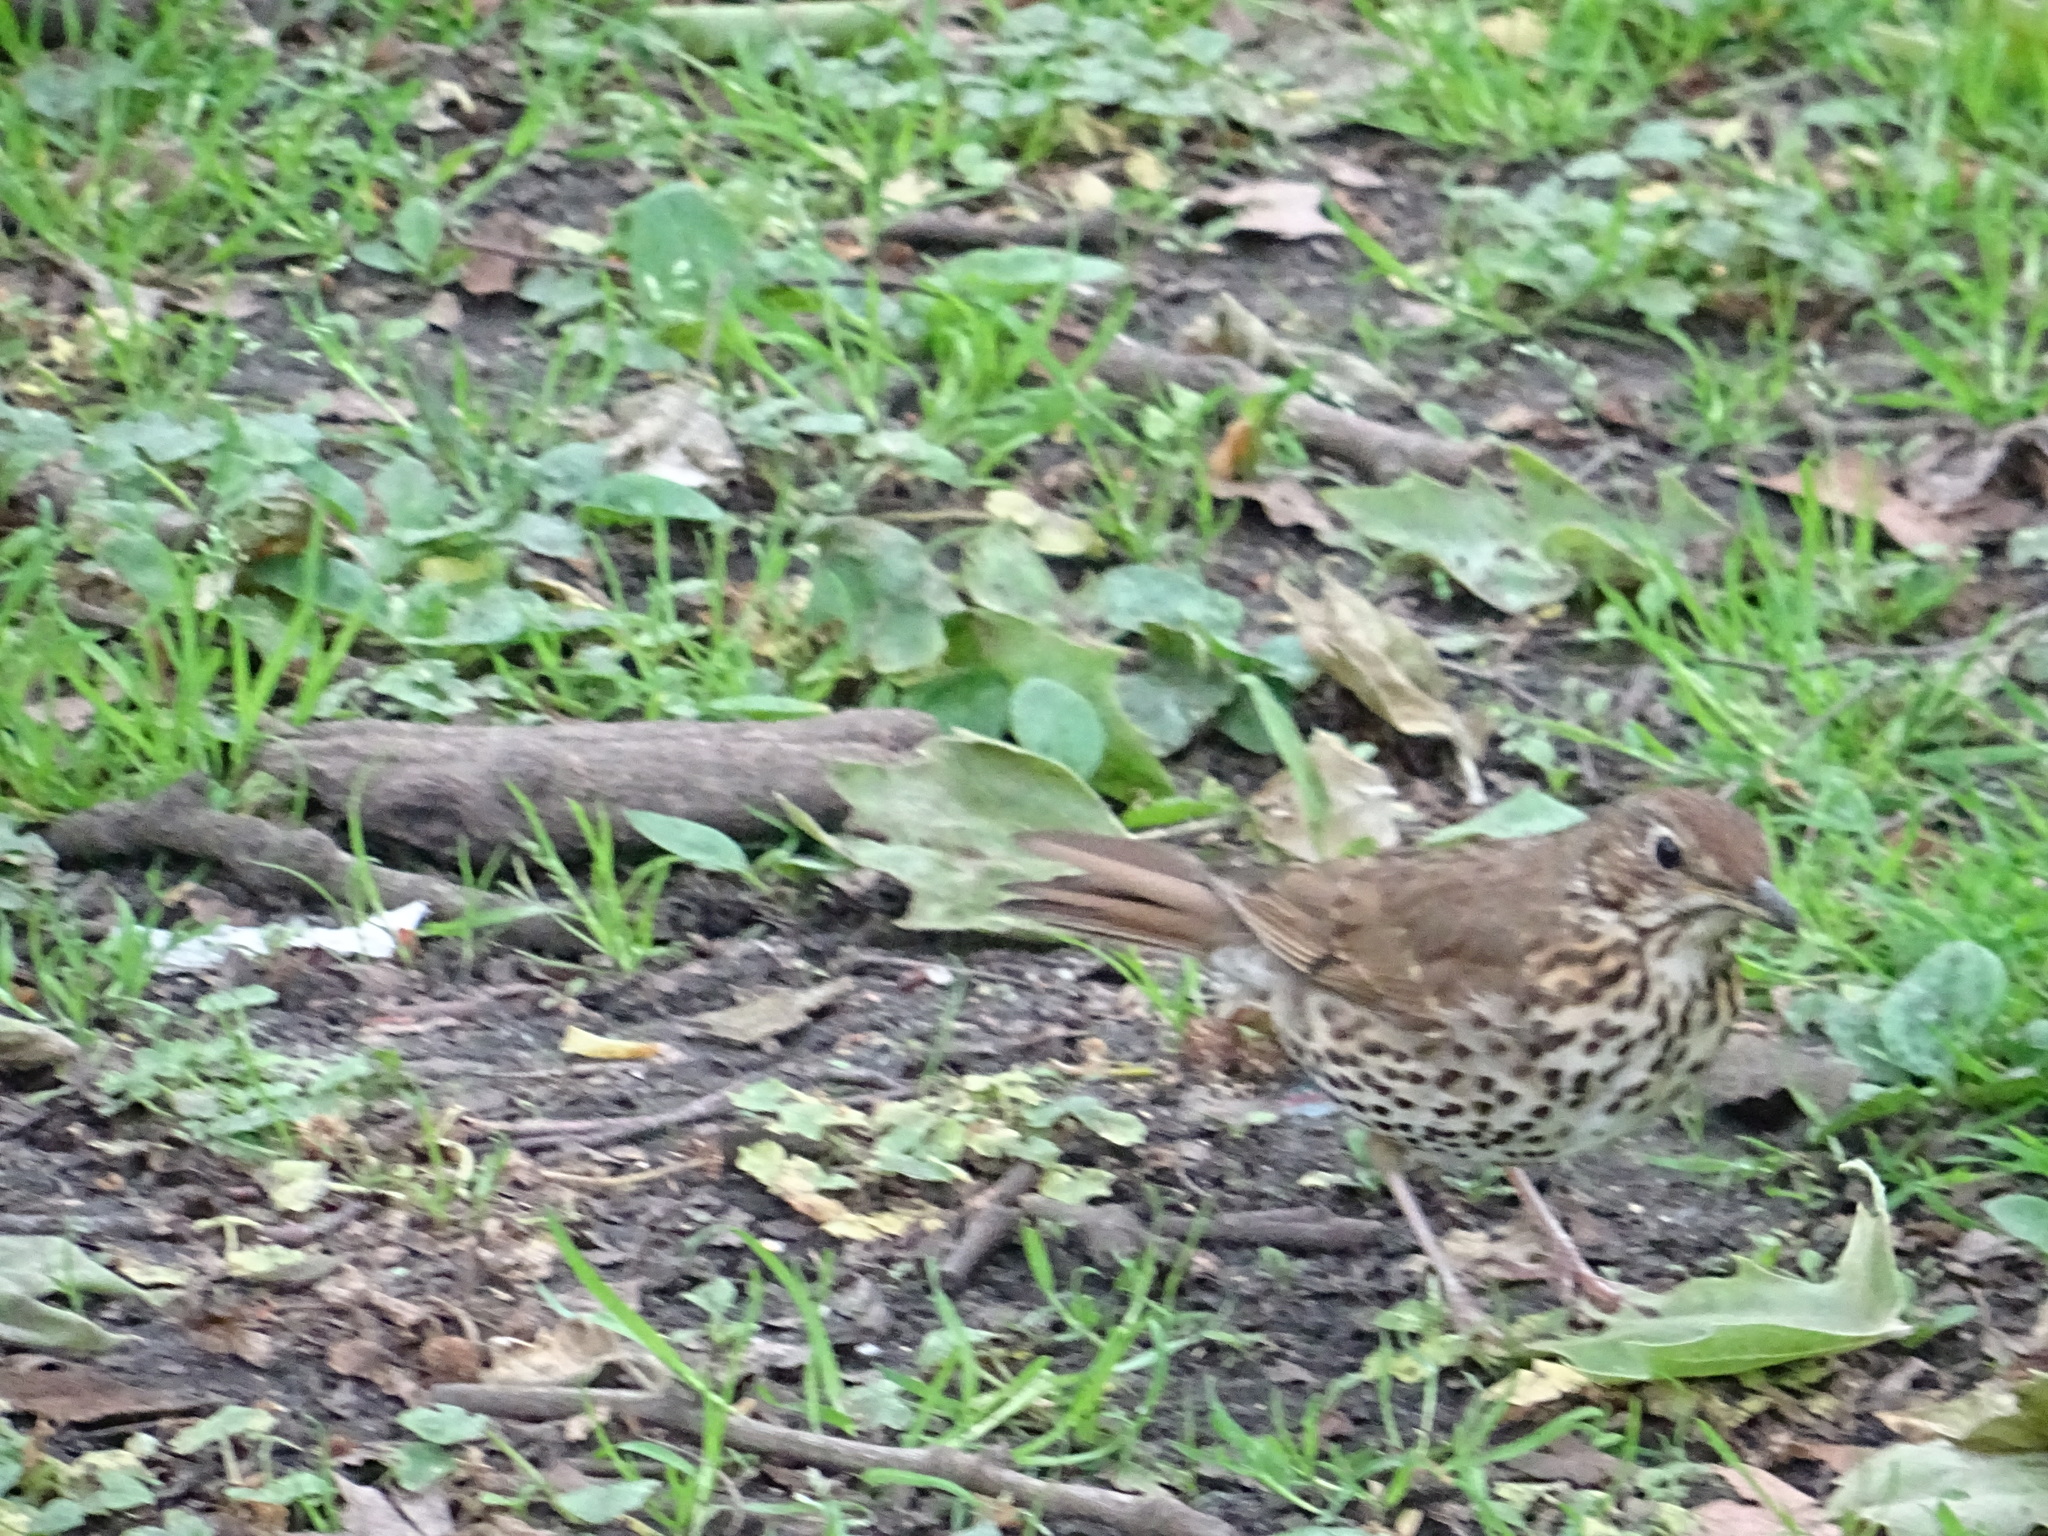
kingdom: Animalia
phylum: Chordata
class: Aves
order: Passeriformes
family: Turdidae
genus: Turdus
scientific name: Turdus philomelos
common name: Song thrush
